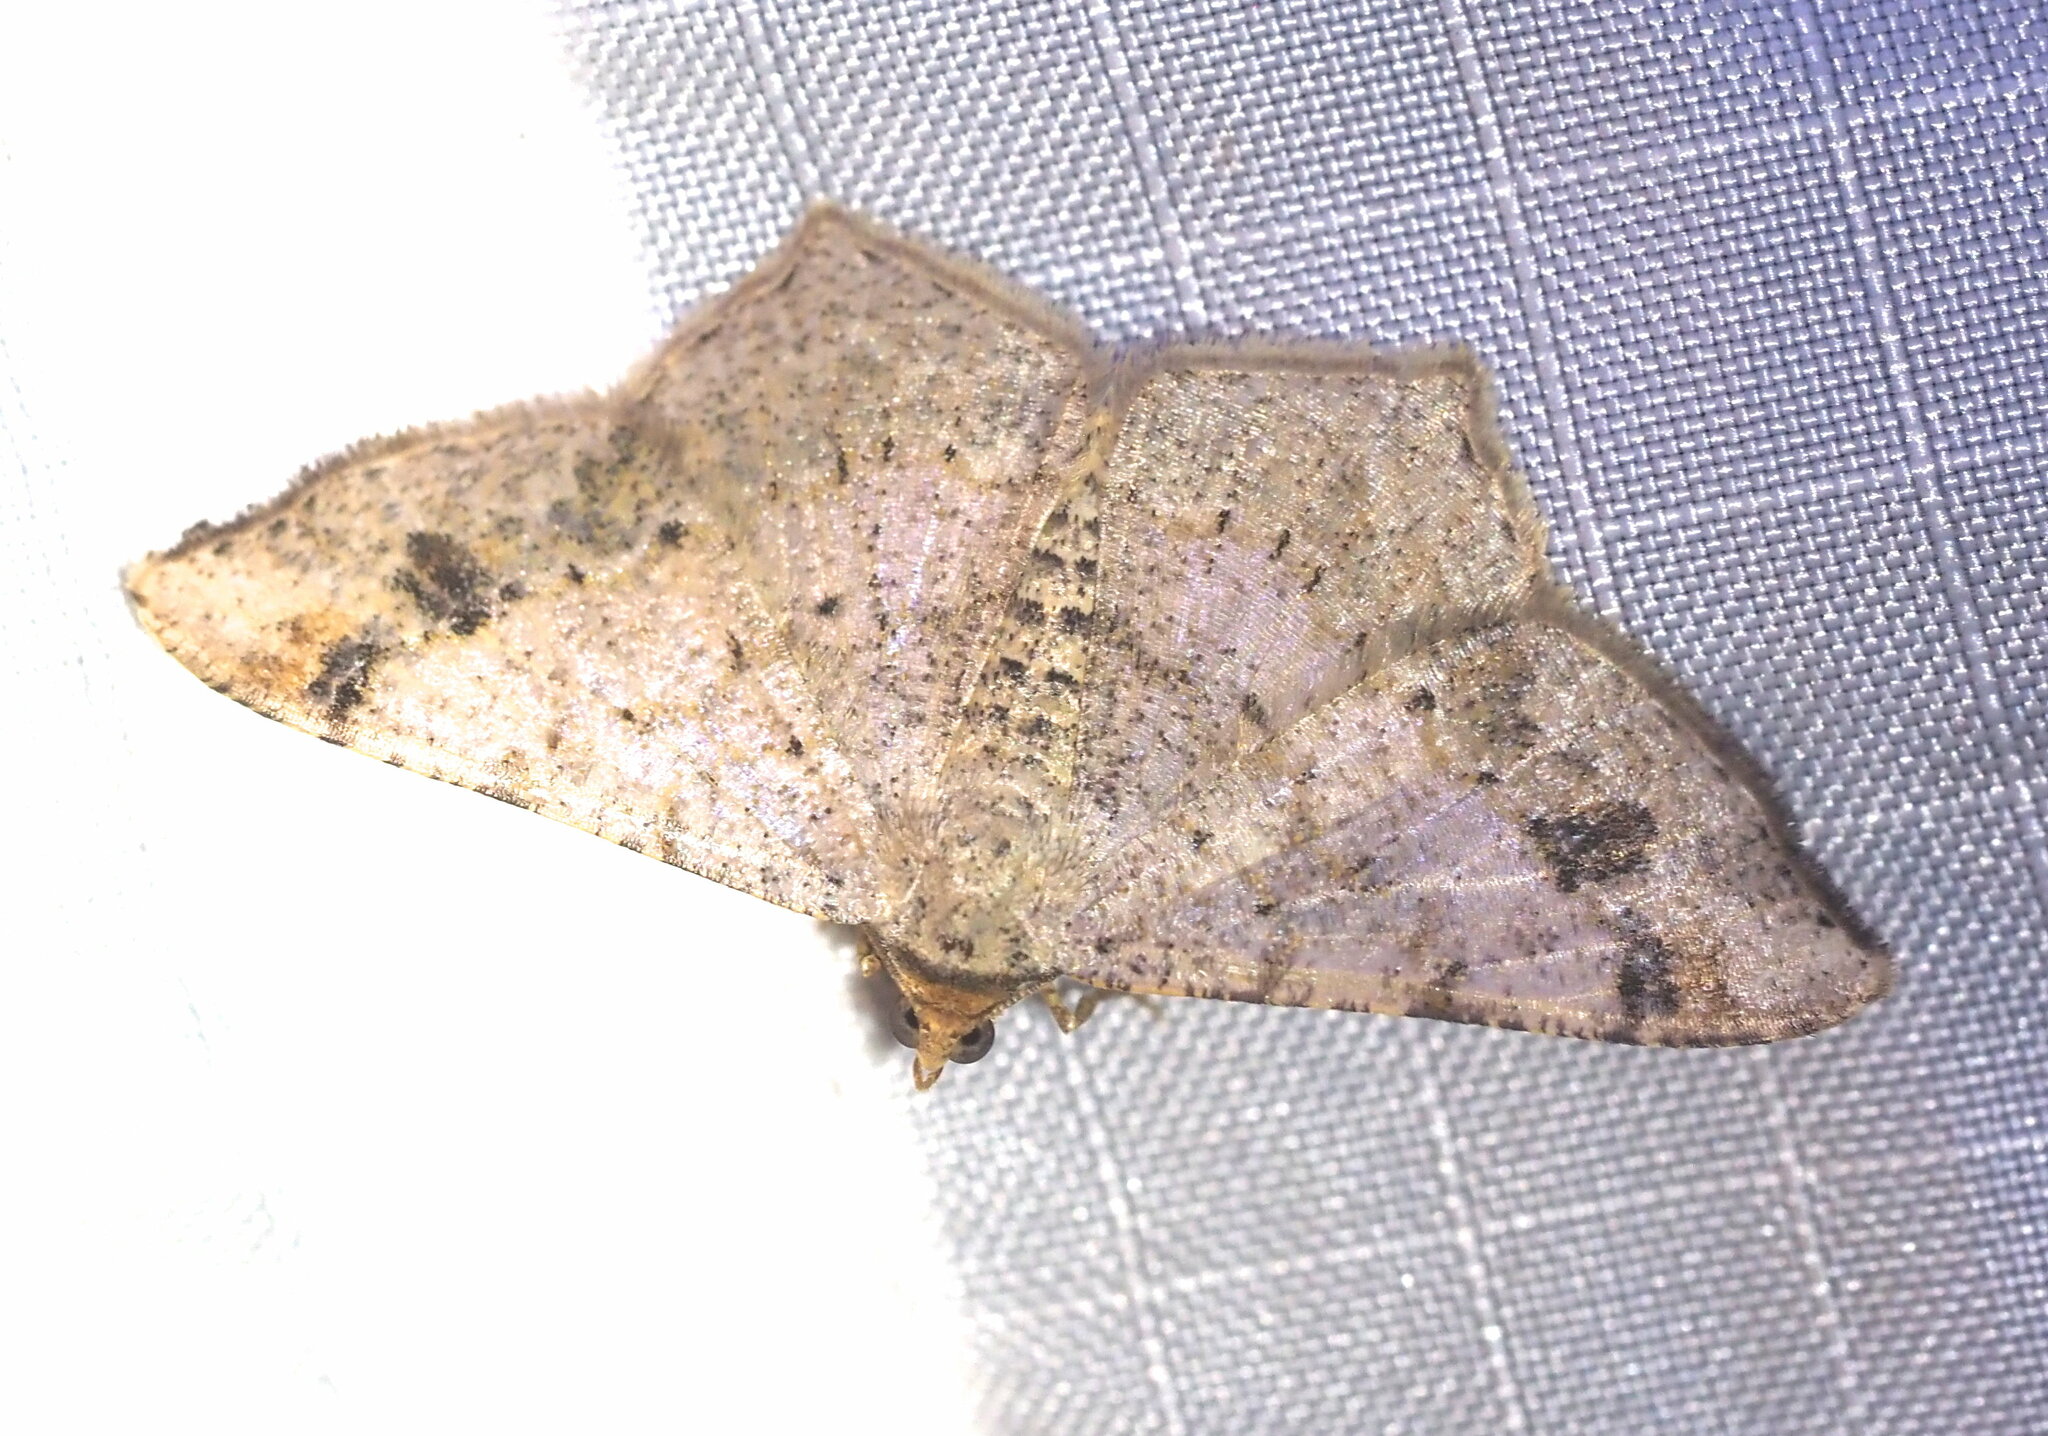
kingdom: Animalia
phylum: Arthropoda
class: Insecta
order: Lepidoptera
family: Geometridae
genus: Macaria
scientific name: Macaria abydata
